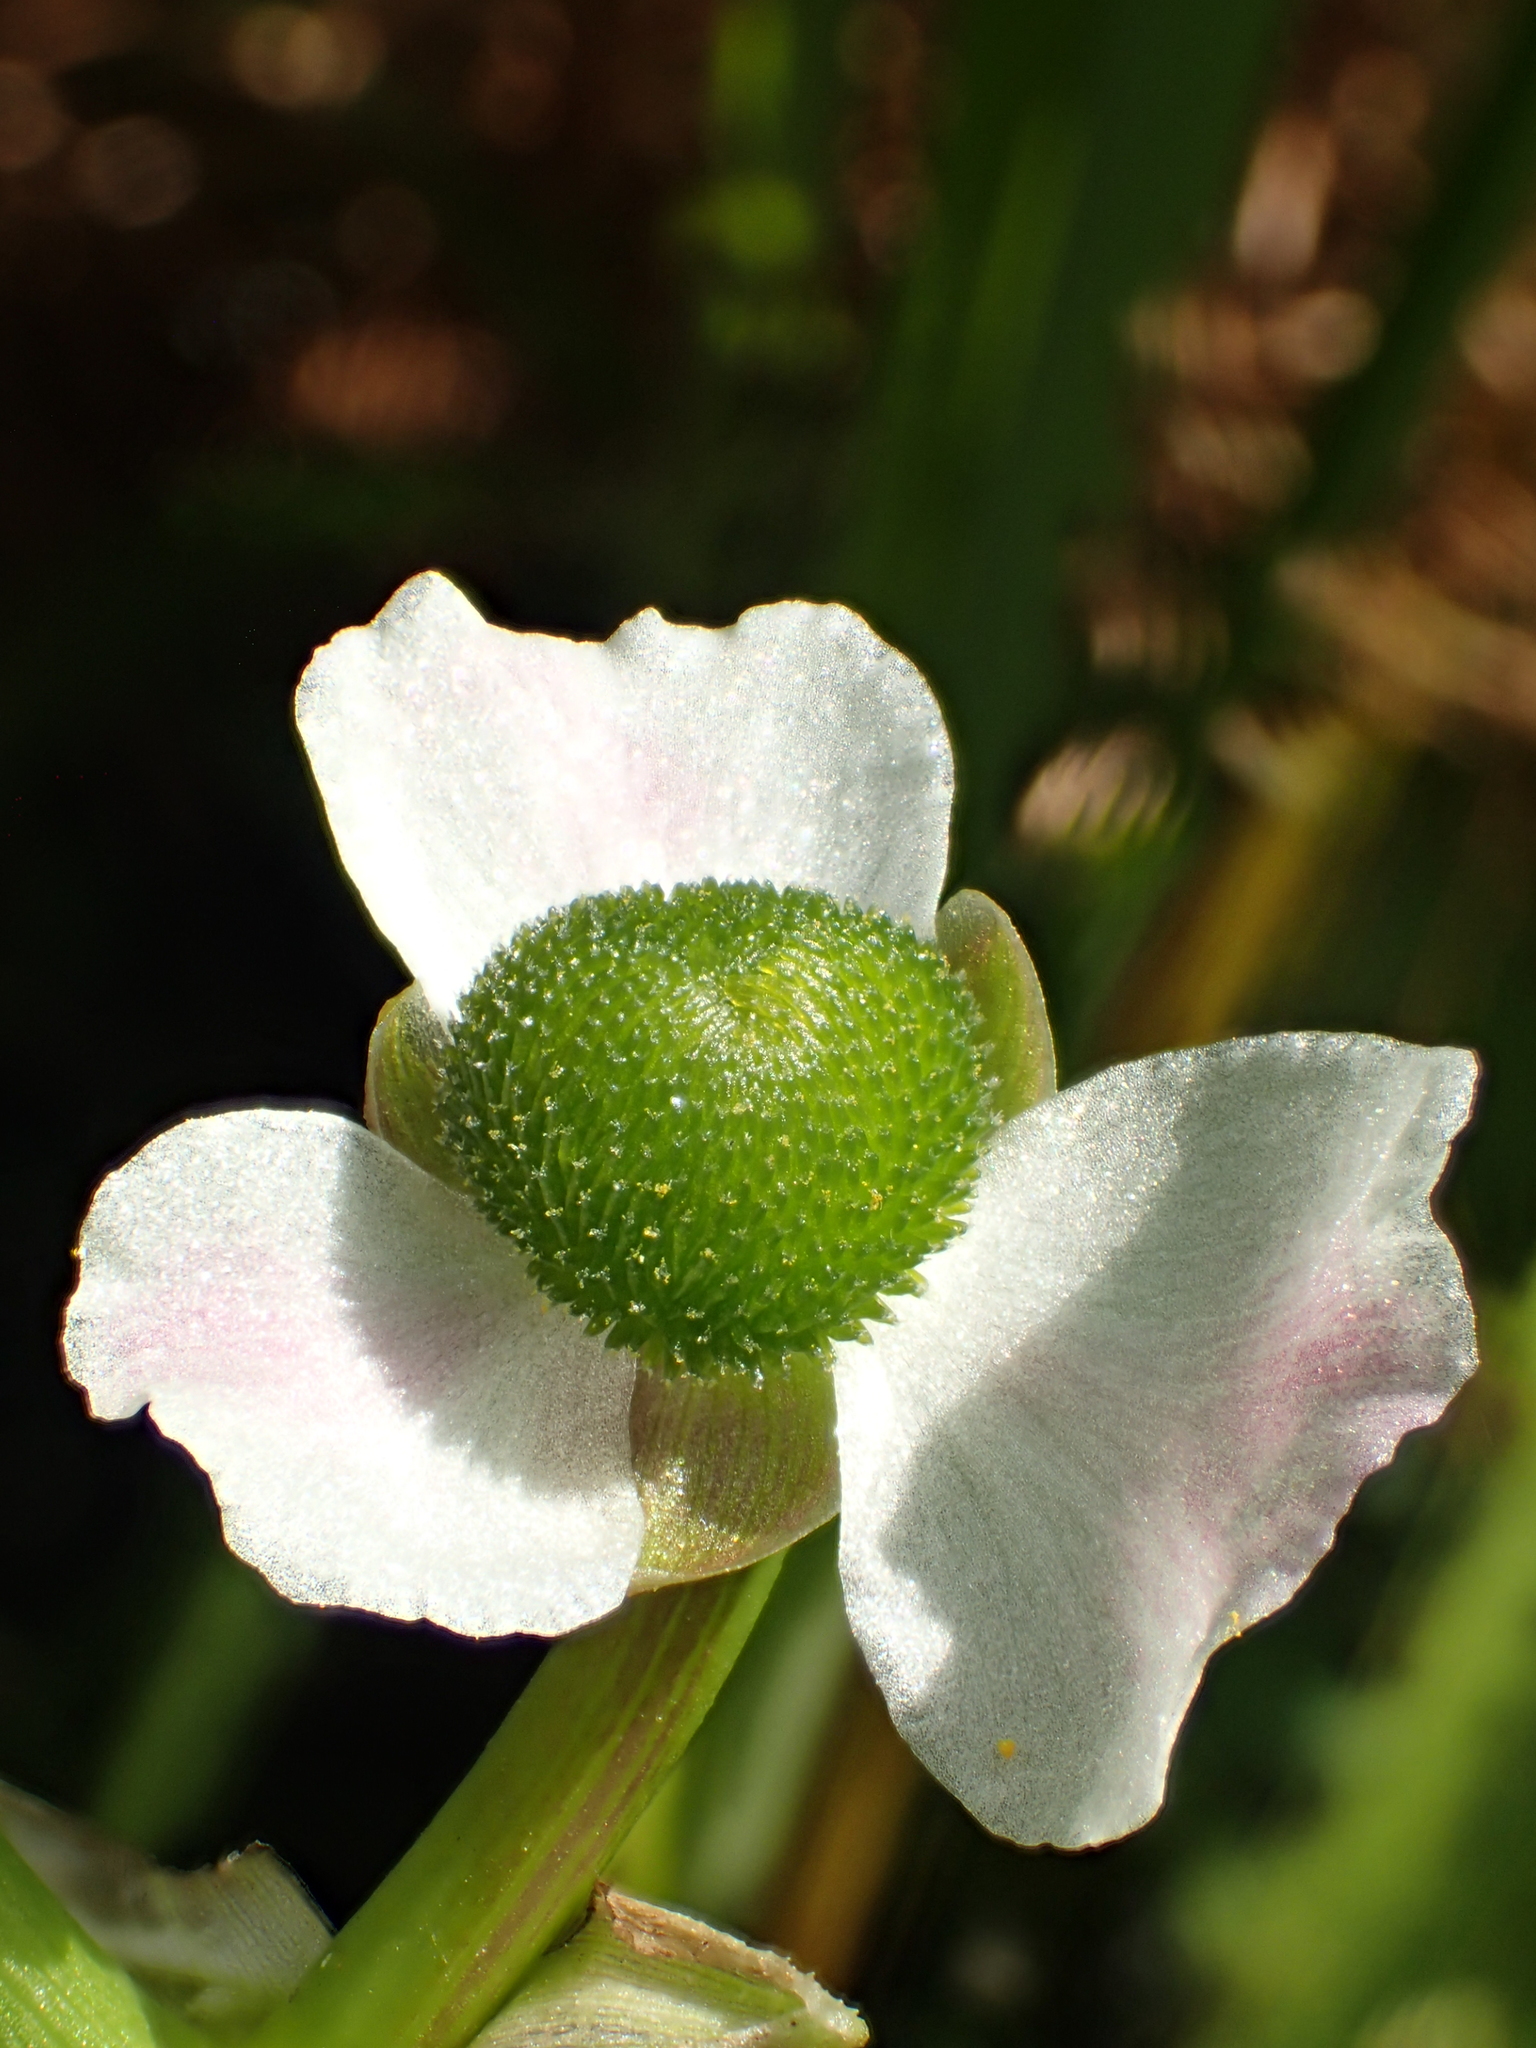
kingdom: Plantae
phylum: Tracheophyta
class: Liliopsida
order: Alismatales
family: Alismataceae
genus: Sagittaria
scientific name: Sagittaria trifolia
